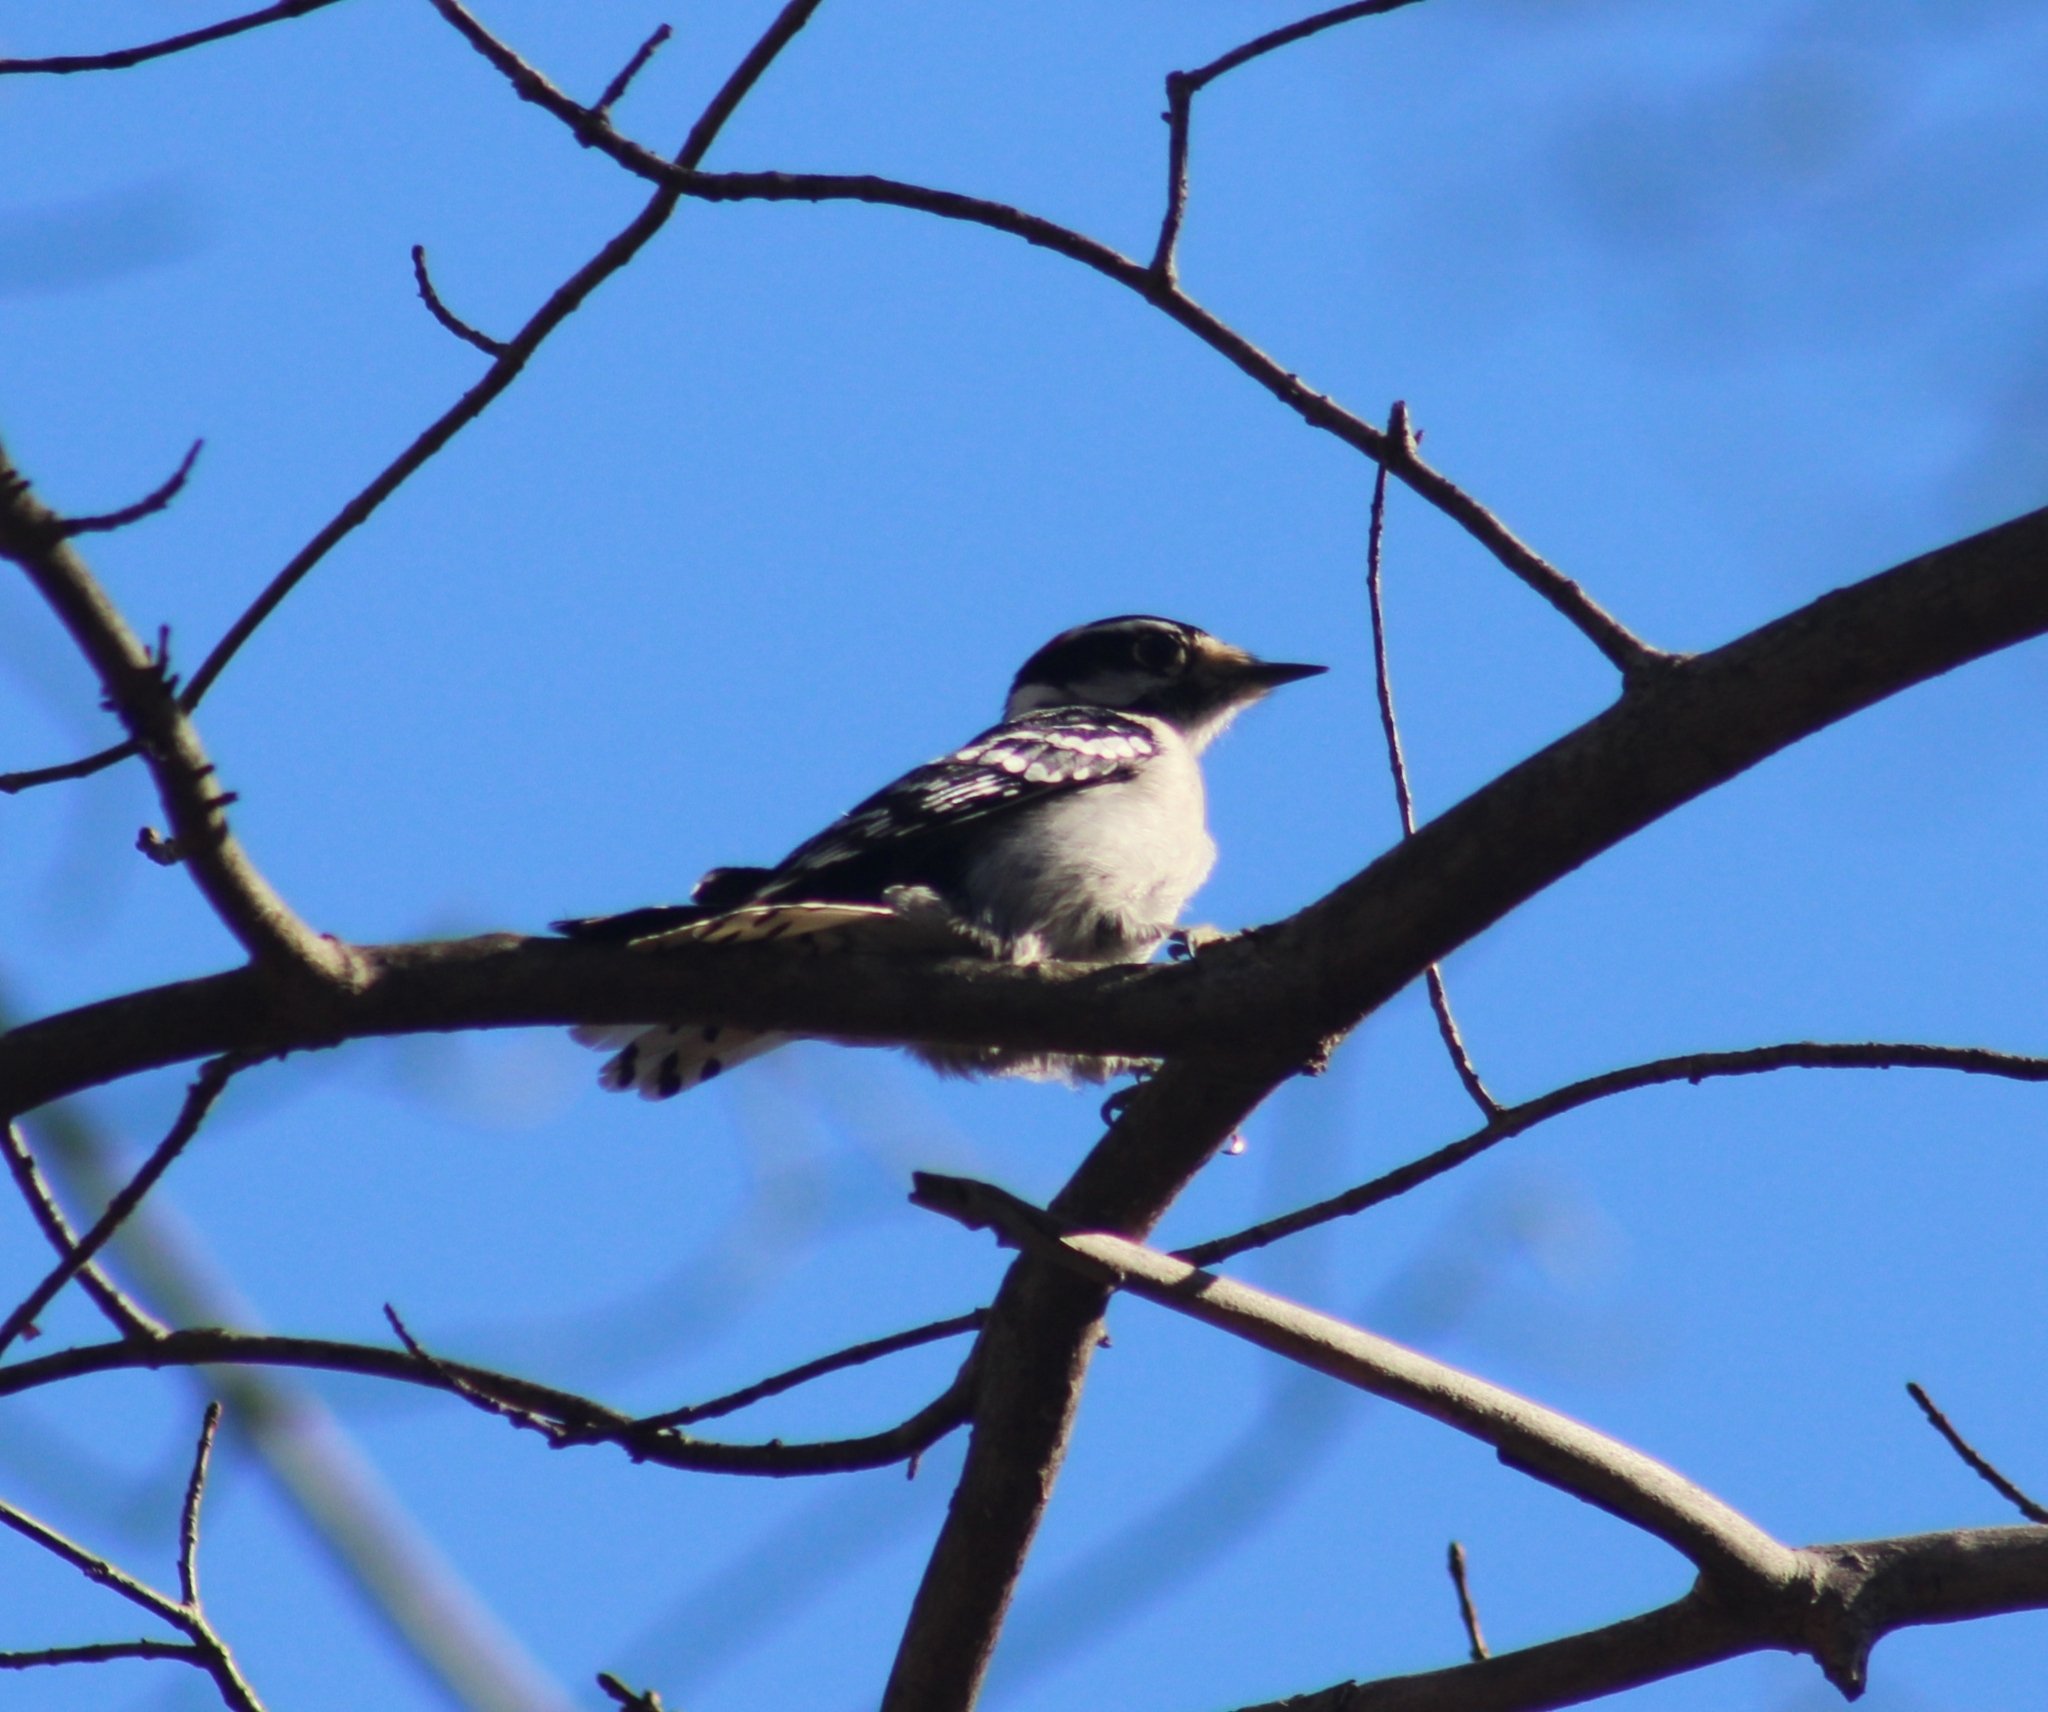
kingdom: Animalia
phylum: Chordata
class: Aves
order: Piciformes
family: Picidae
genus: Dryobates
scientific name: Dryobates pubescens
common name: Downy woodpecker
